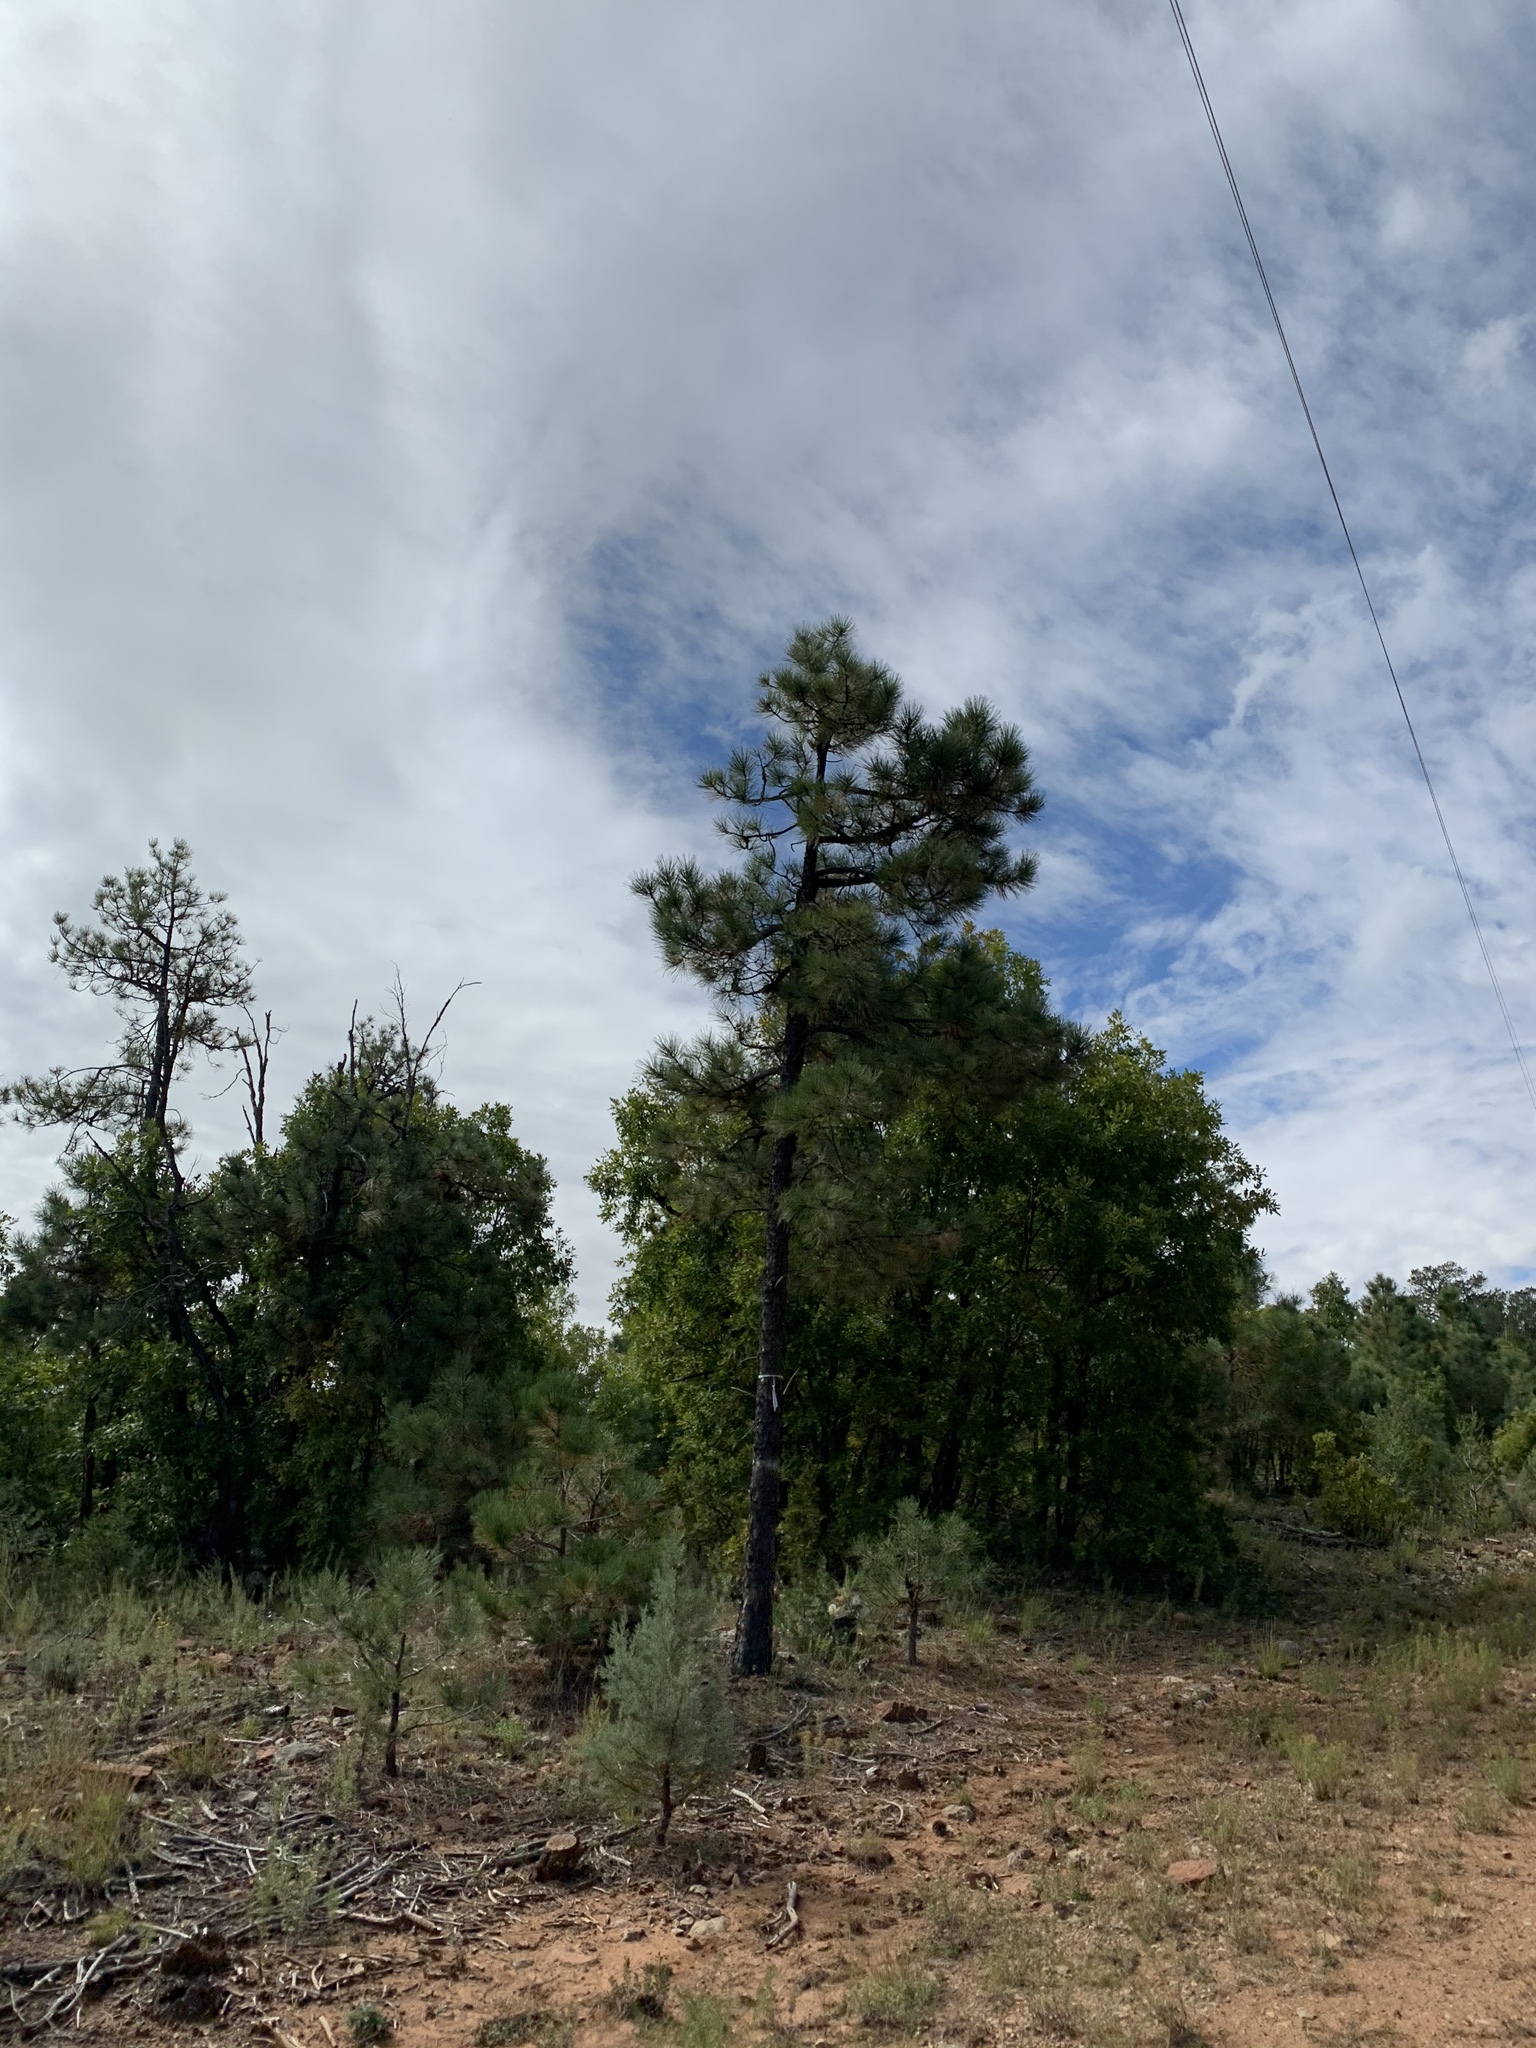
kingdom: Plantae
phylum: Tracheophyta
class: Pinopsida
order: Pinales
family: Pinaceae
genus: Pinus
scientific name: Pinus ponderosa
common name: Western yellow-pine
